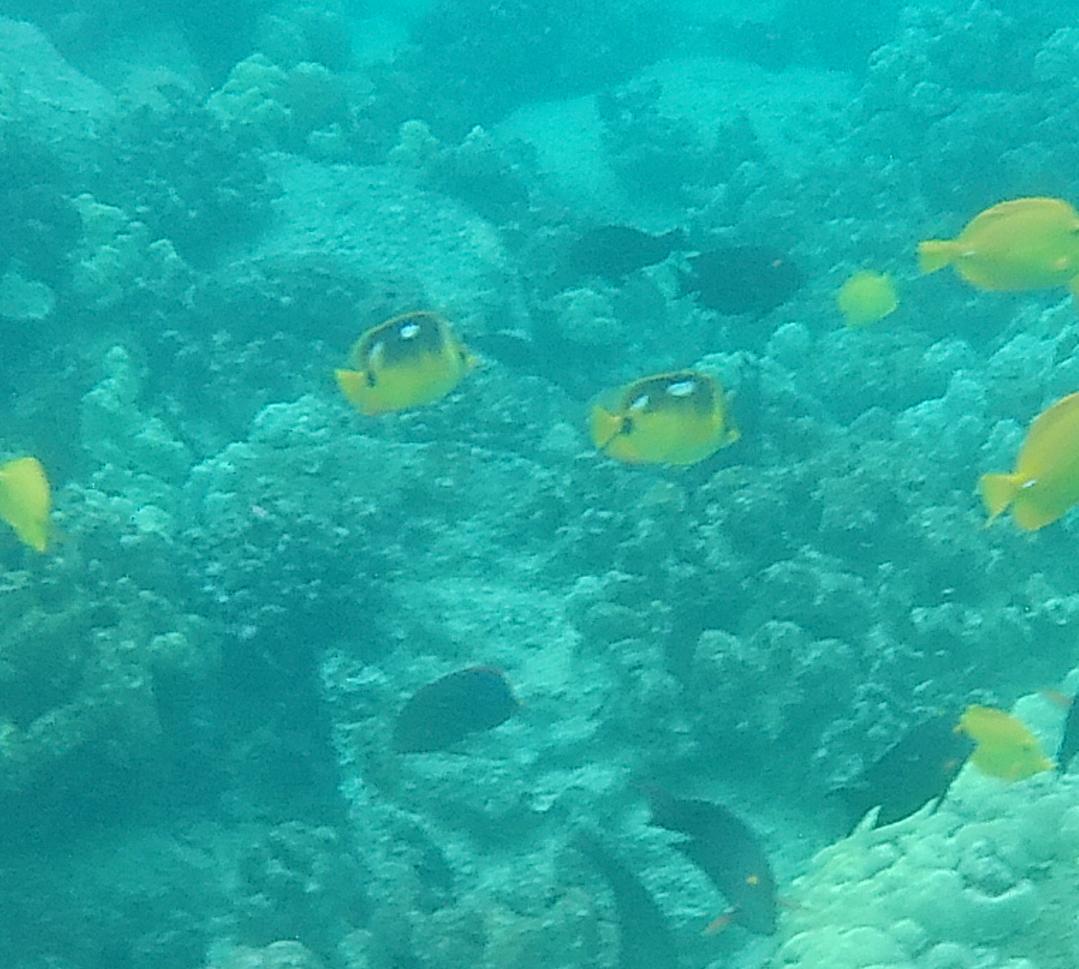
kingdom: Animalia
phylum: Chordata
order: Perciformes
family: Chaetodontidae
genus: Chaetodon
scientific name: Chaetodon quadrimaculatus
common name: Fourspot butterflyfish
